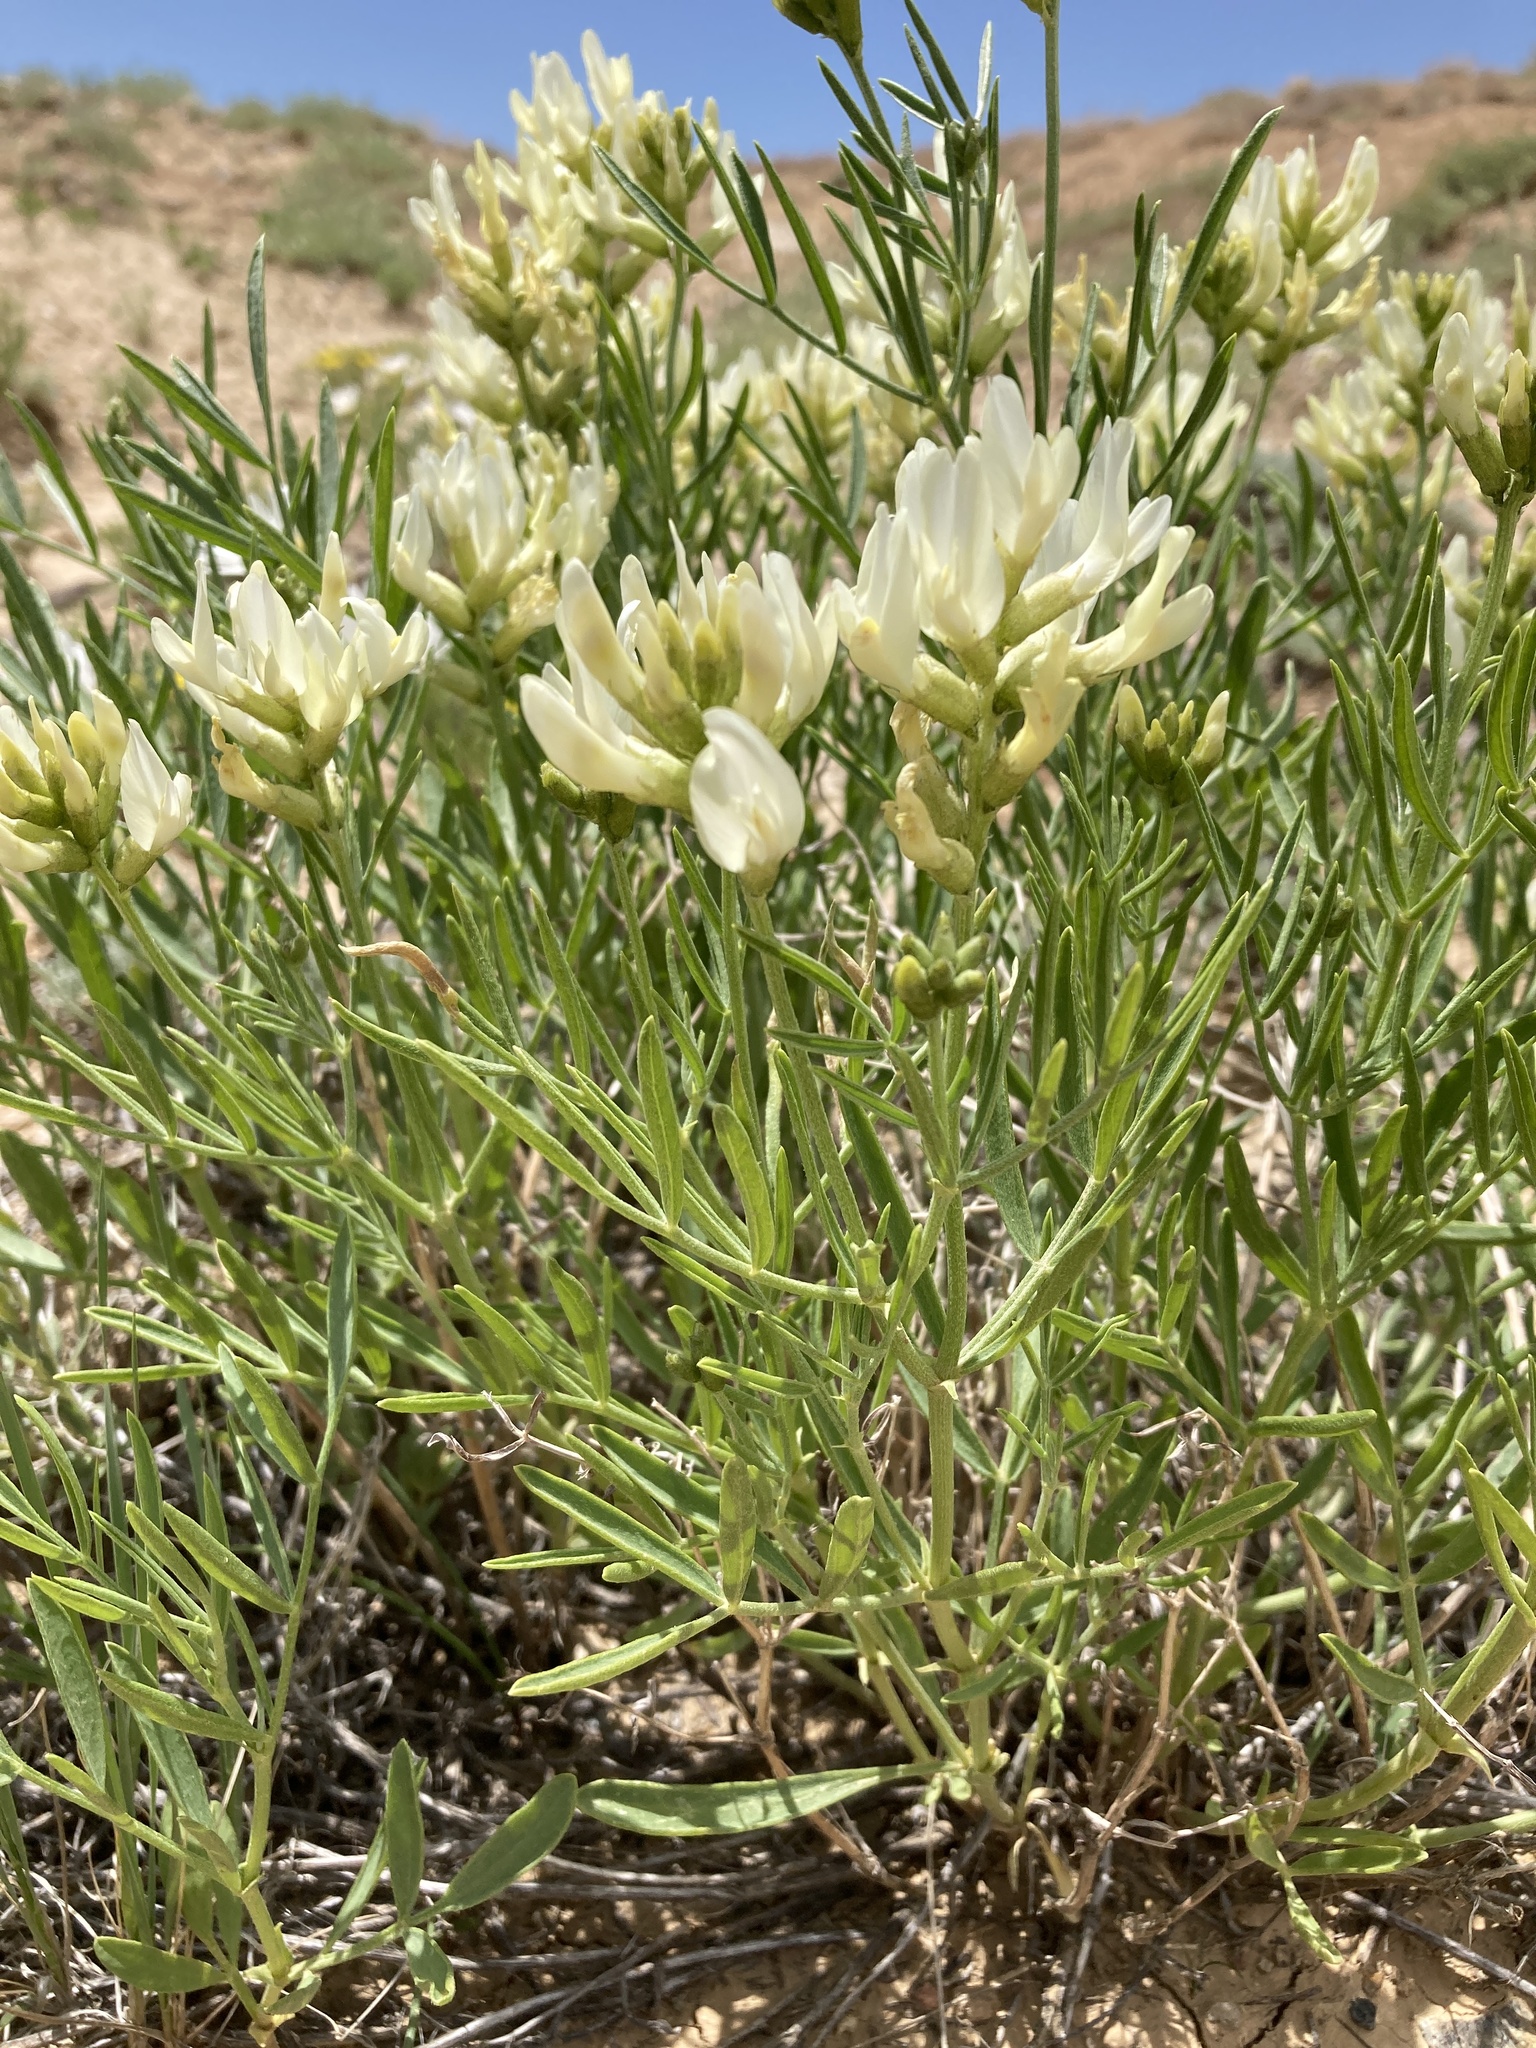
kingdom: Plantae
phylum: Tracheophyta
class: Magnoliopsida
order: Fabales
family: Fabaceae
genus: Astragalus
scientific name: Astragalus grayi
